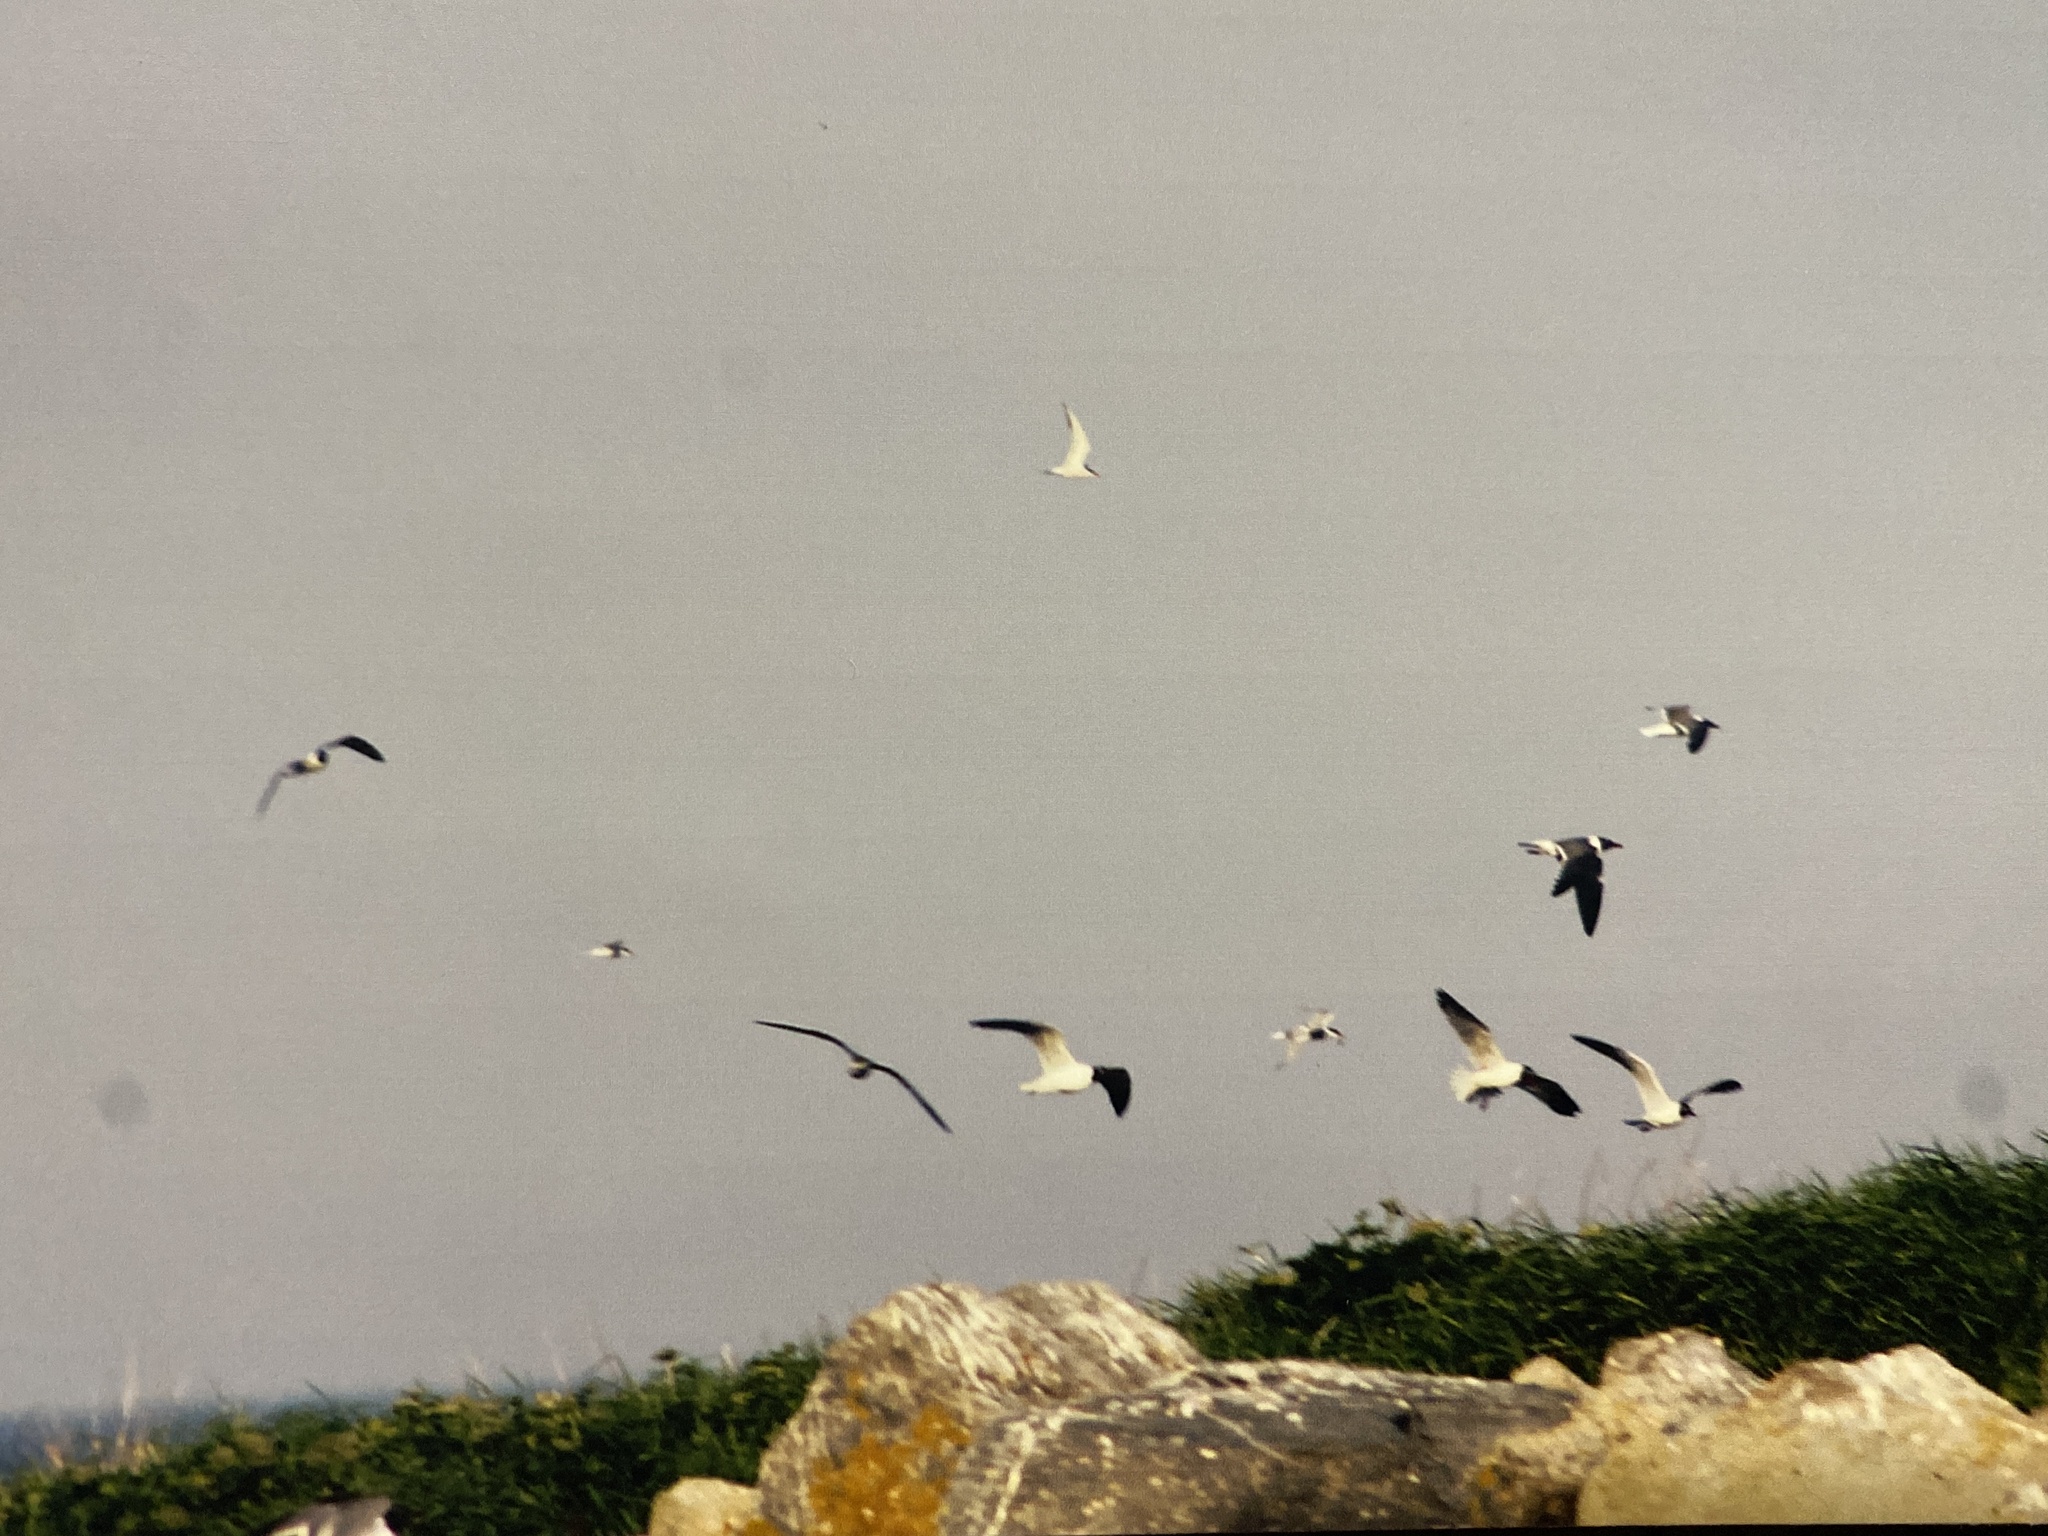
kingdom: Animalia
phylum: Chordata
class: Aves
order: Charadriiformes
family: Laridae
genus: Leucophaeus
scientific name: Leucophaeus atricilla
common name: Laughing gull
